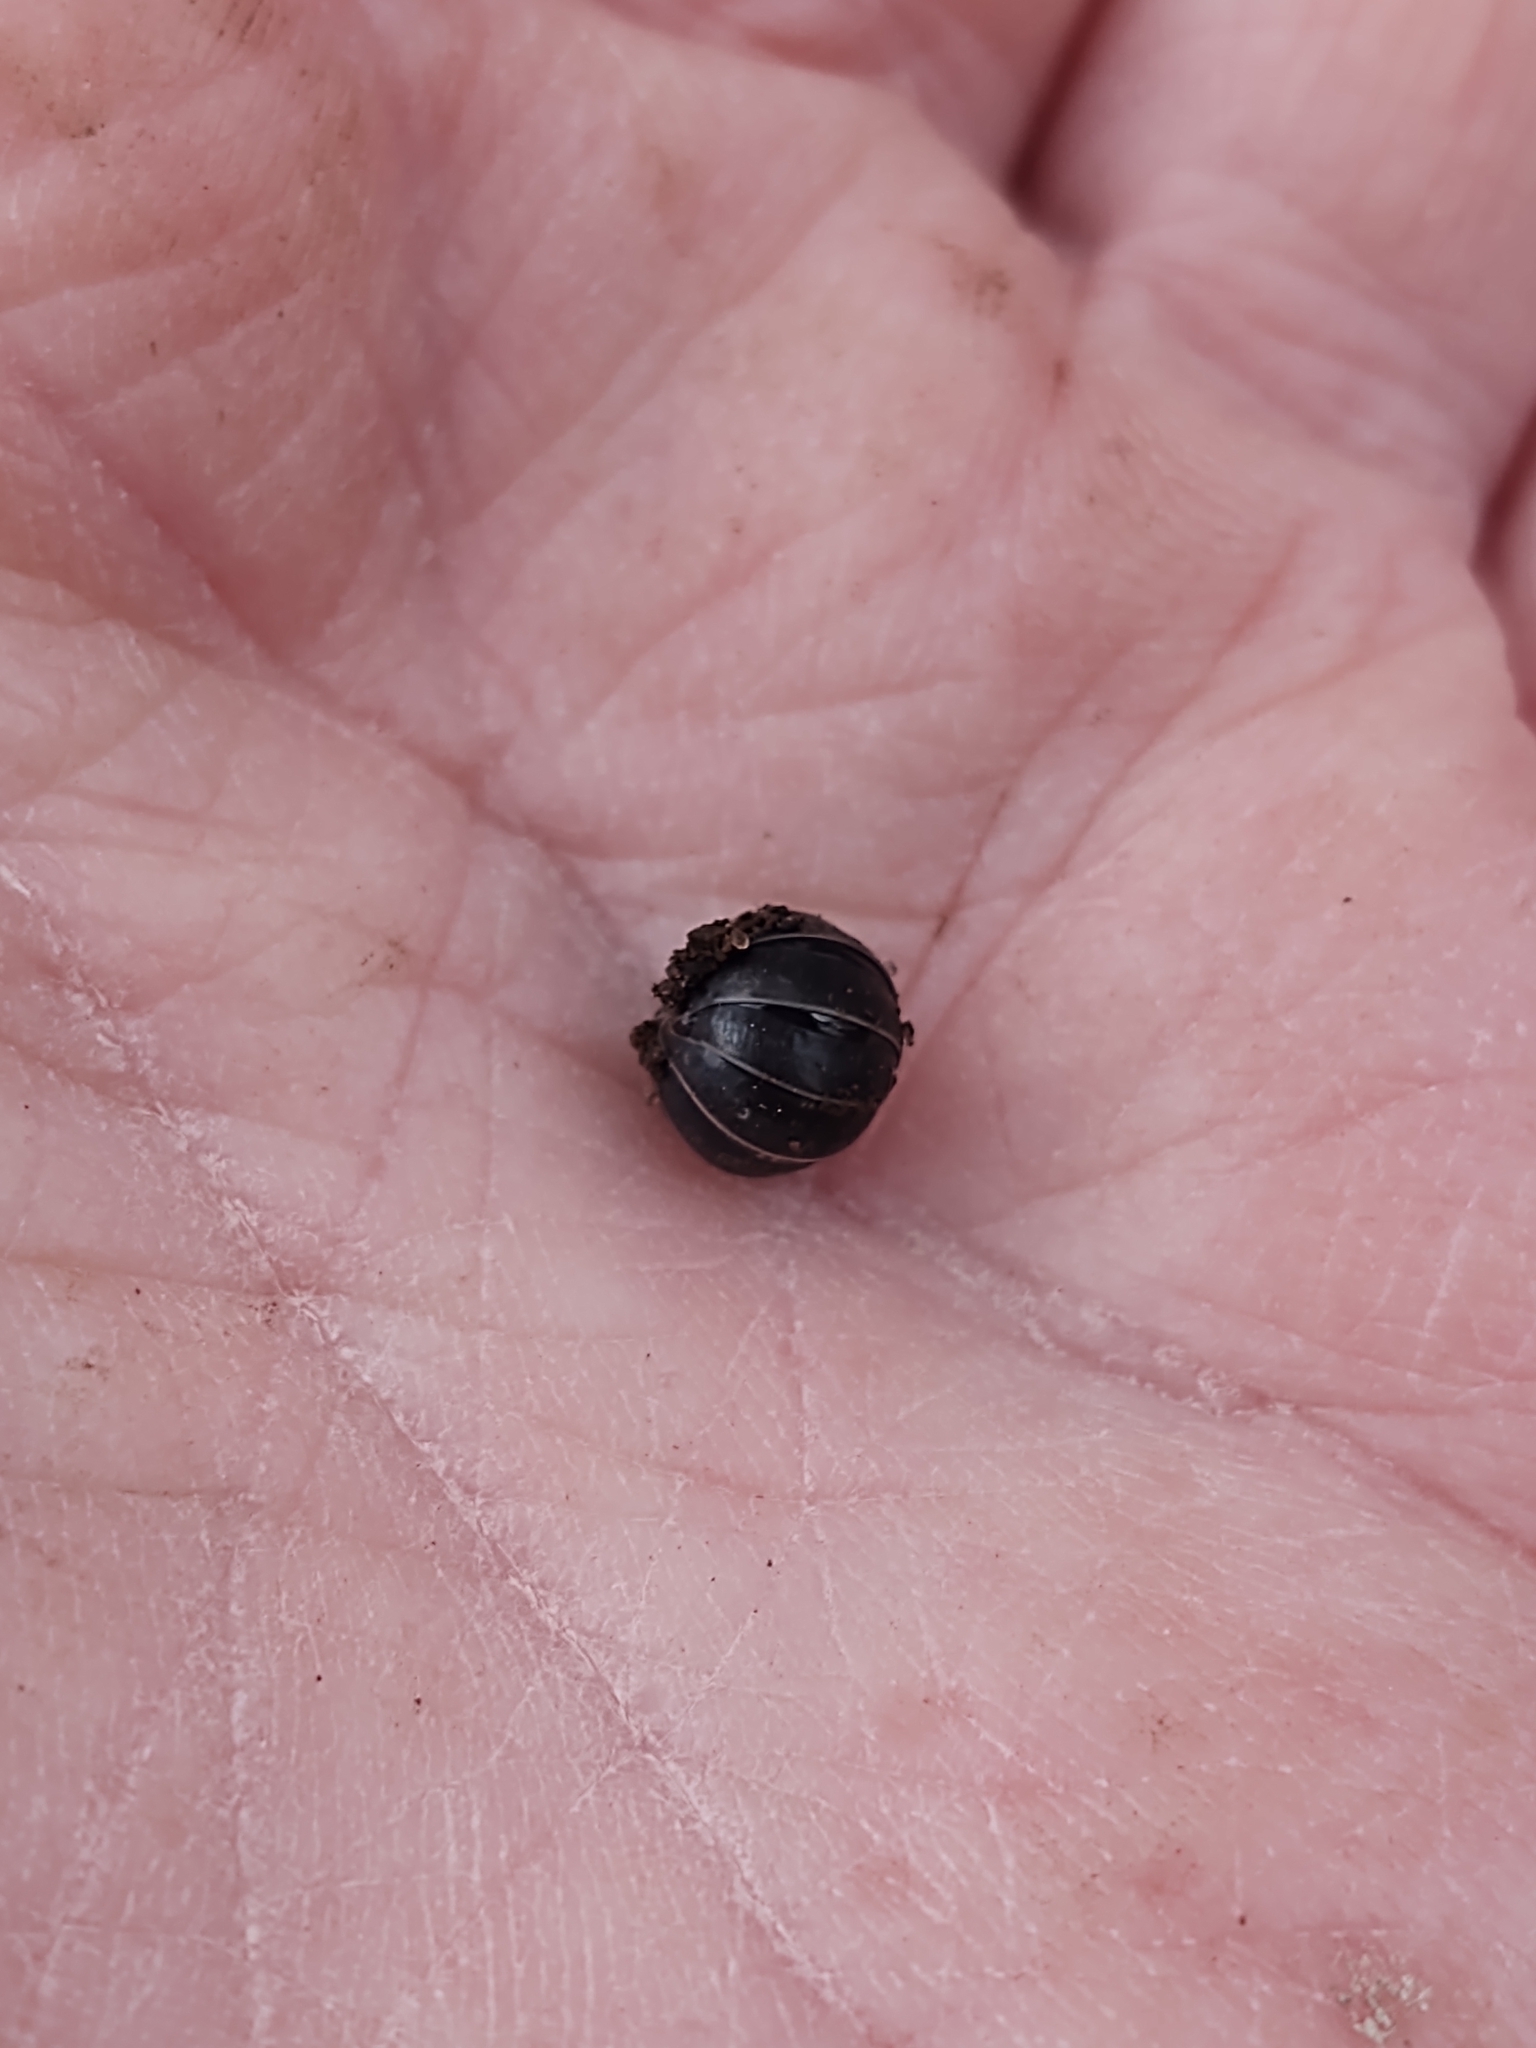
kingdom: Animalia
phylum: Arthropoda
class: Malacostraca
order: Isopoda
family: Armadillidiidae
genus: Armadillidium
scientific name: Armadillidium vulgare
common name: Common pill woodlouse
